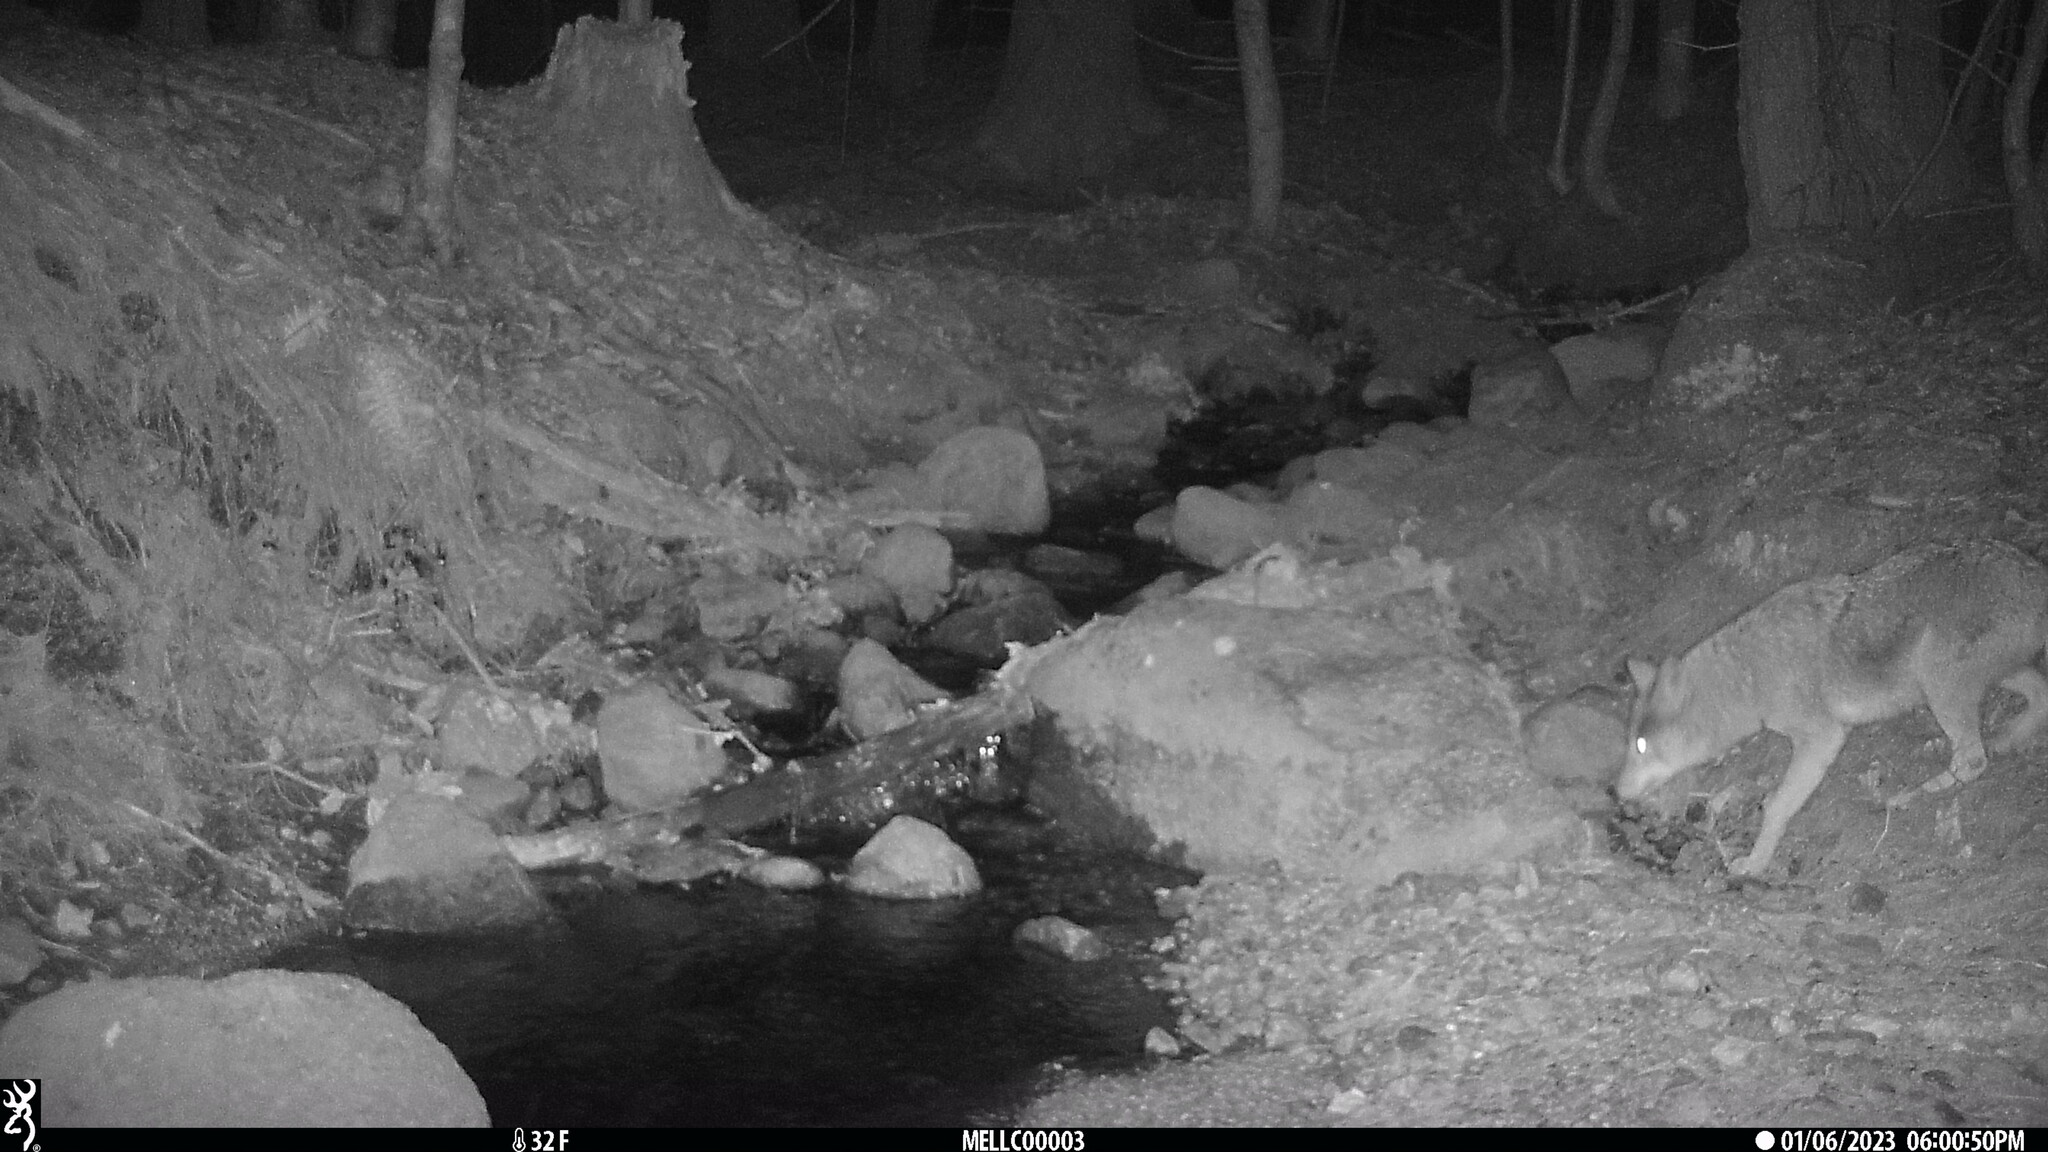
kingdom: Animalia
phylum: Chordata
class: Mammalia
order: Carnivora
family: Canidae
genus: Canis
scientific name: Canis latrans
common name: Coyote
